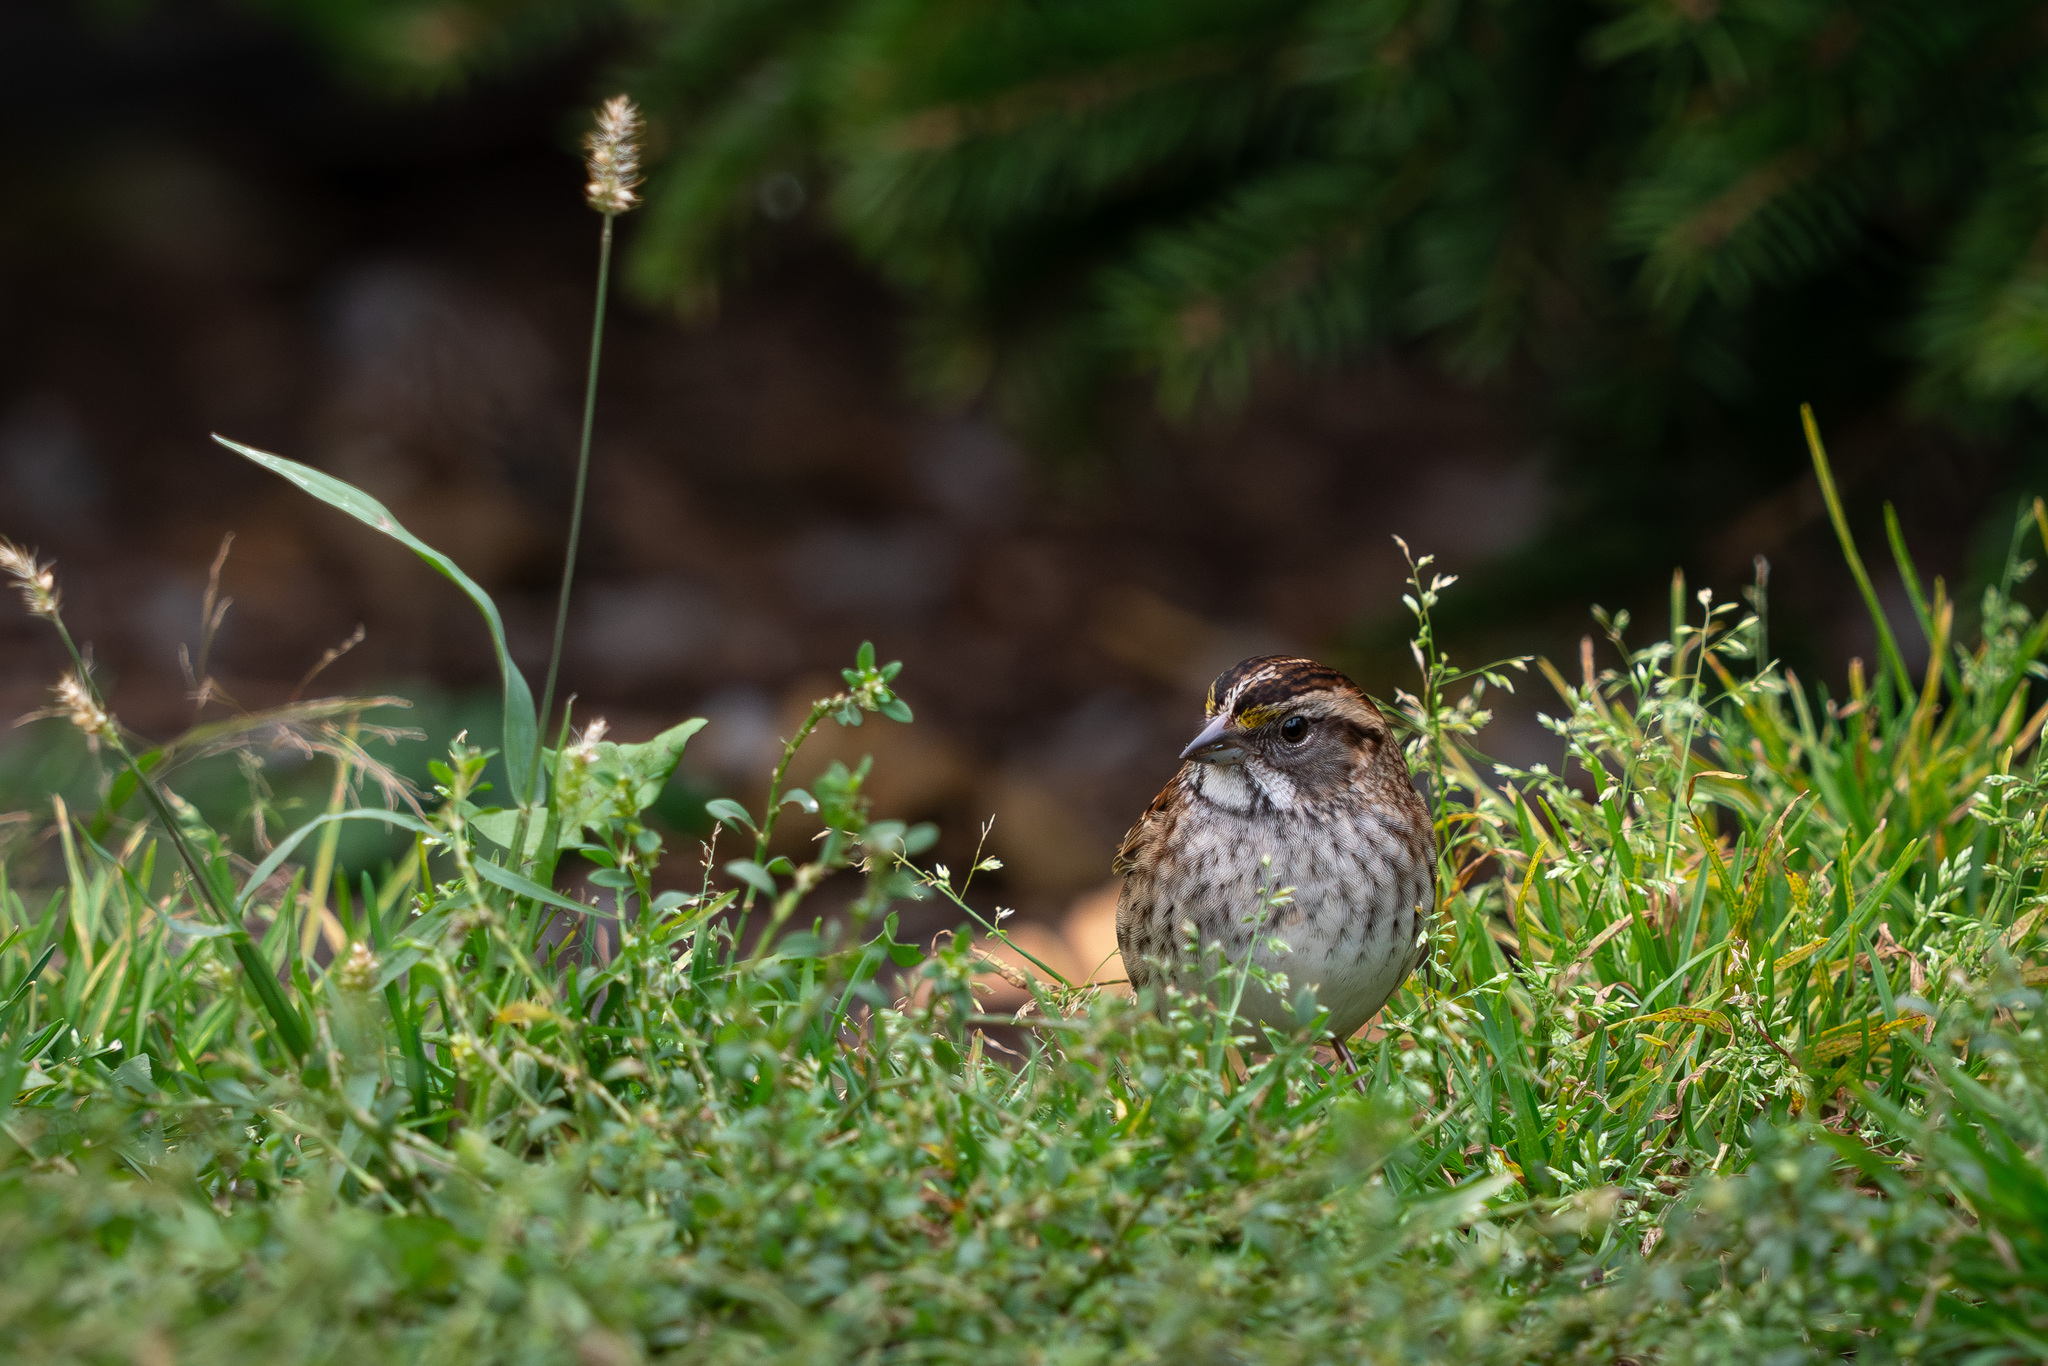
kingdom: Animalia
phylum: Chordata
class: Aves
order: Passeriformes
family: Passerellidae
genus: Zonotrichia
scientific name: Zonotrichia albicollis
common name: White-throated sparrow
